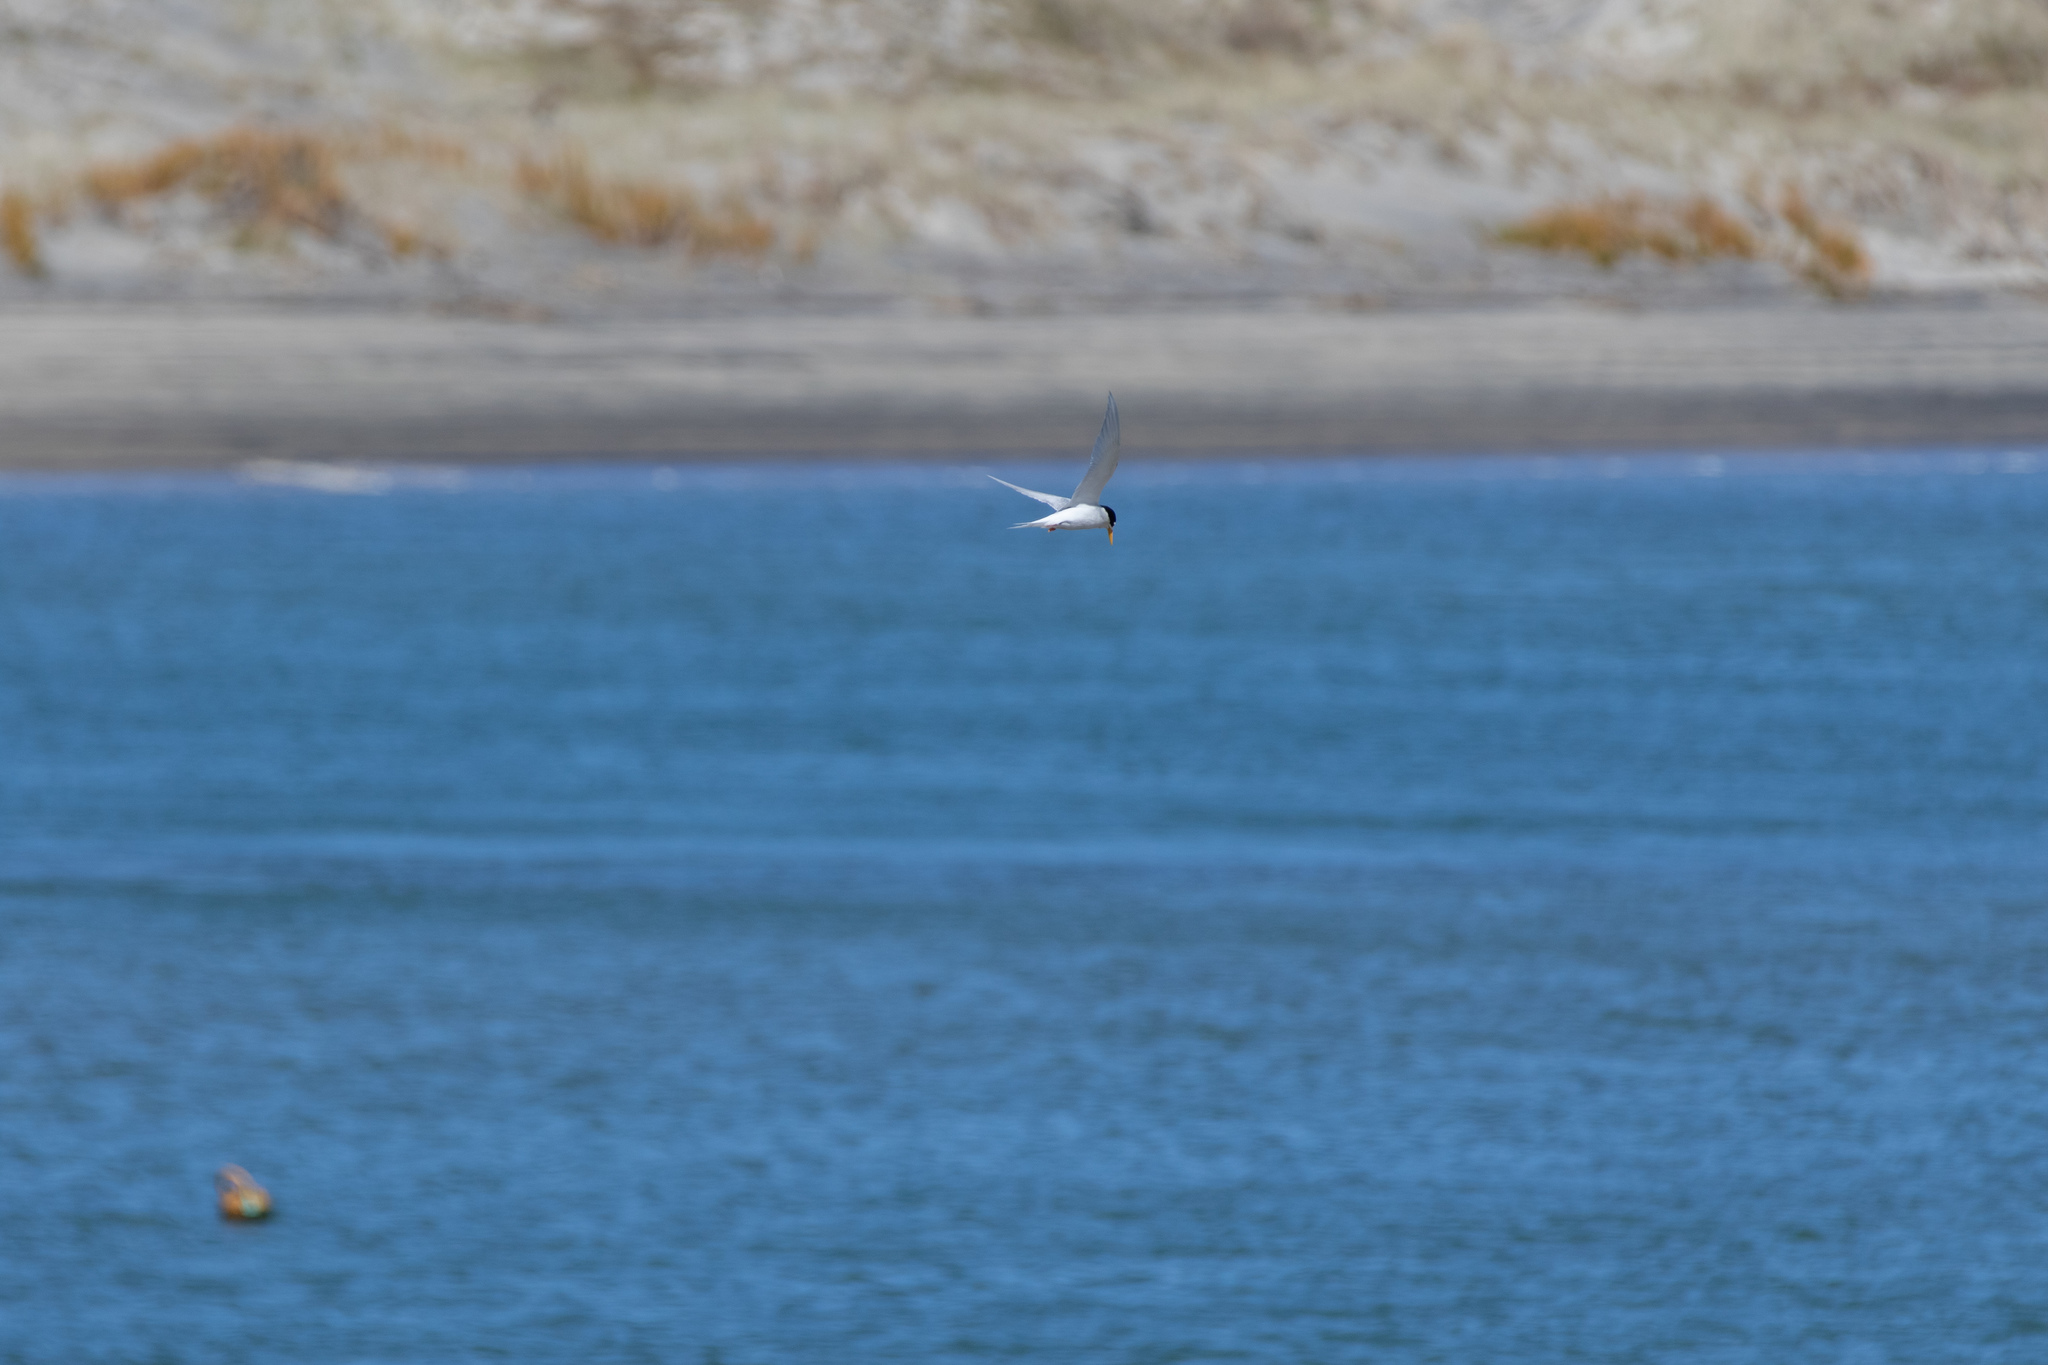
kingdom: Animalia
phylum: Chordata
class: Aves
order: Charadriiformes
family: Laridae
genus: Sternula
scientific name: Sternula nereis
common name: Fairy tern
